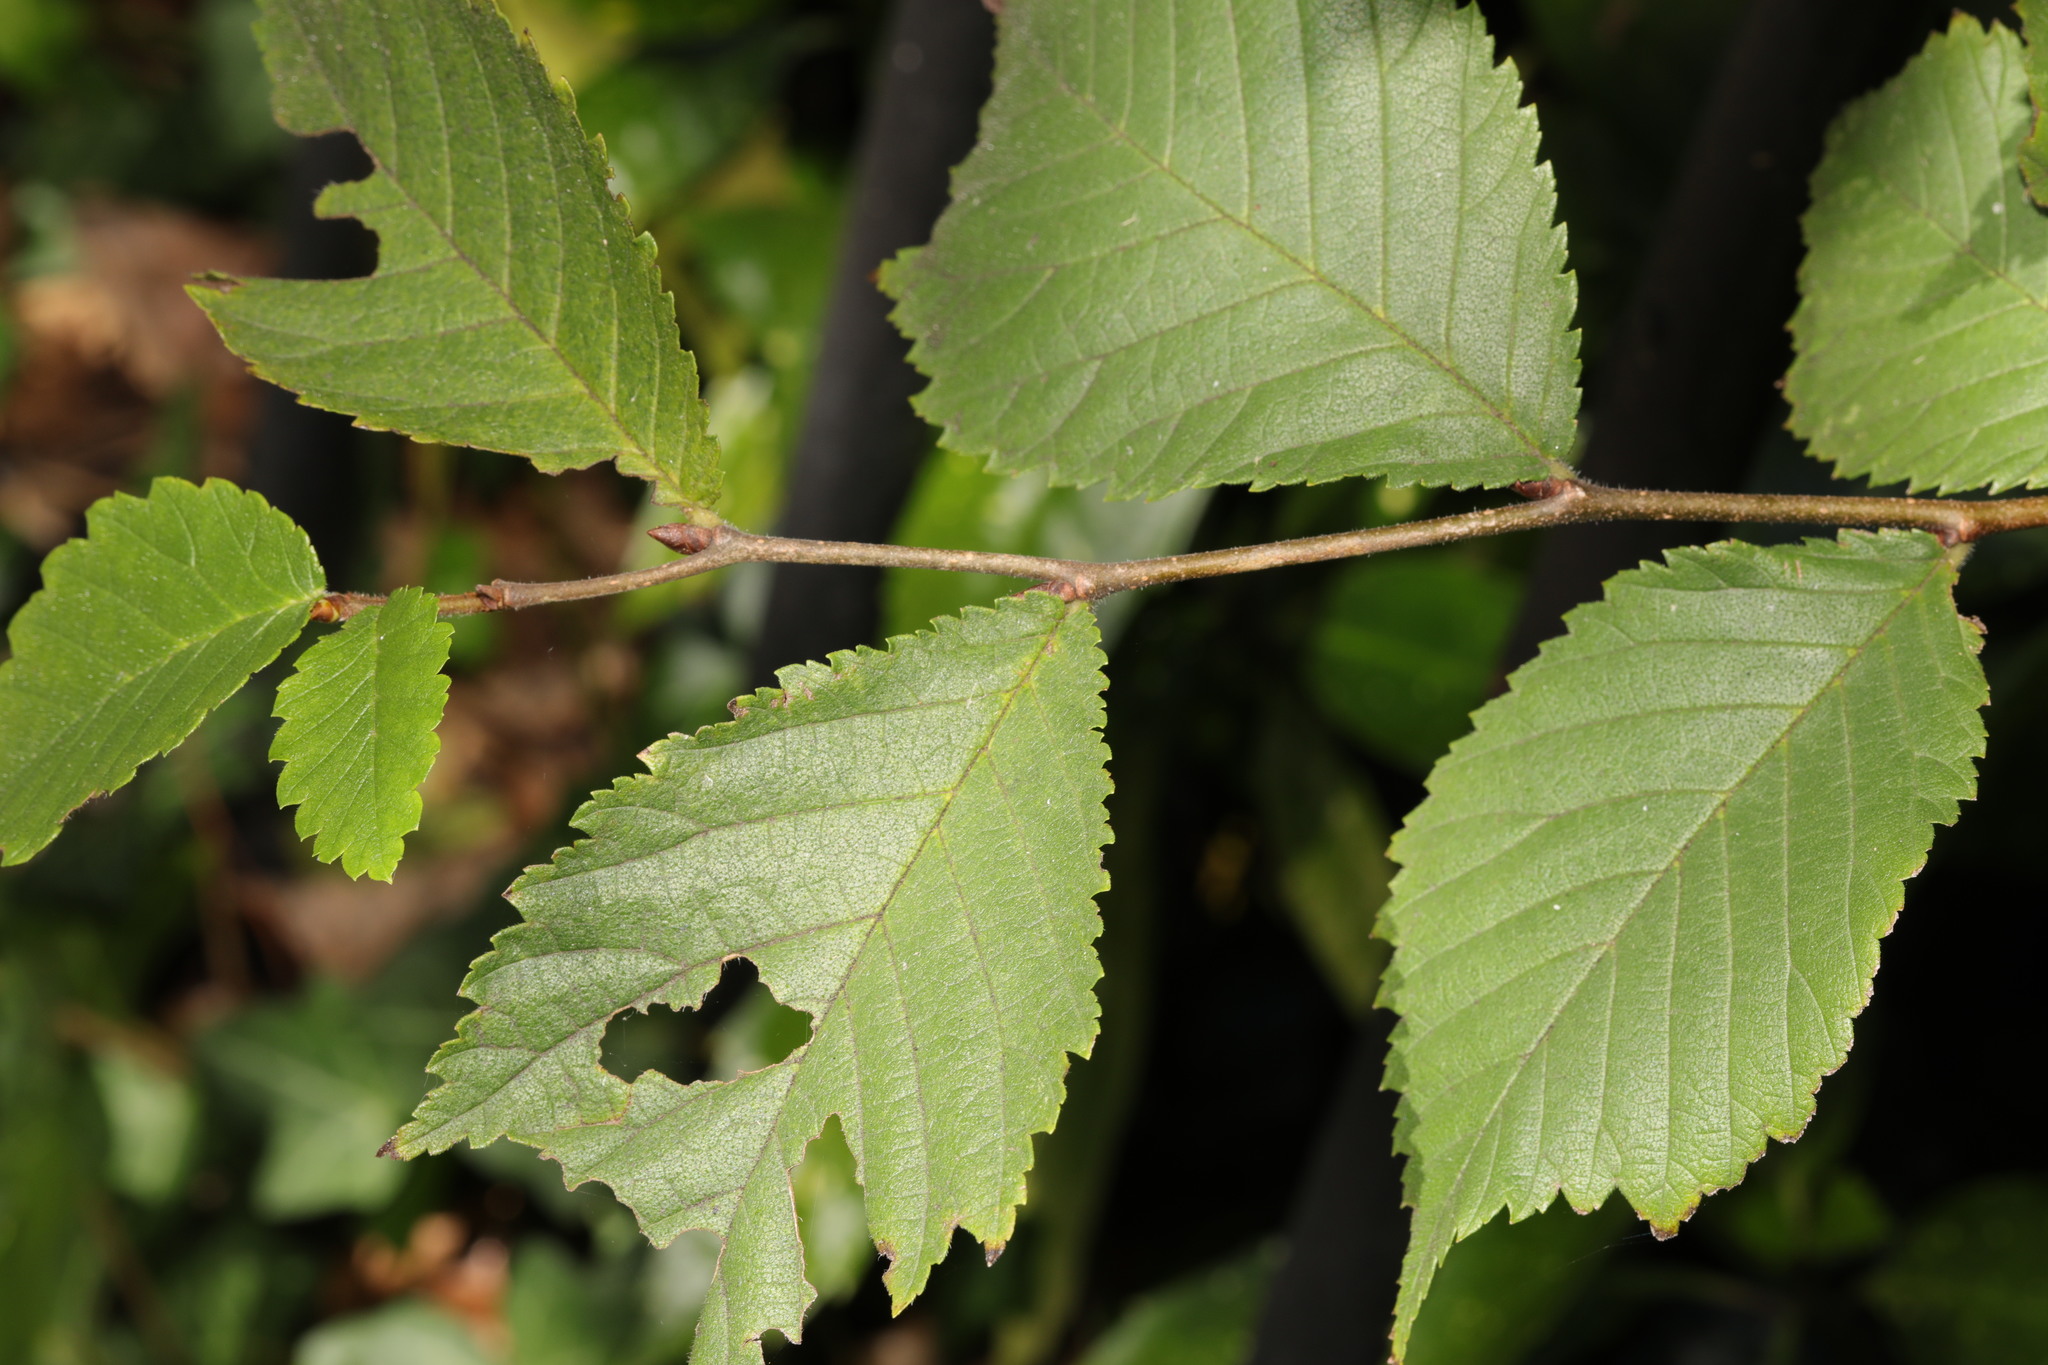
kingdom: Plantae
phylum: Tracheophyta
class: Magnoliopsida
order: Rosales
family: Ulmaceae
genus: Ulmus
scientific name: Ulmus glabra
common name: Wych elm
